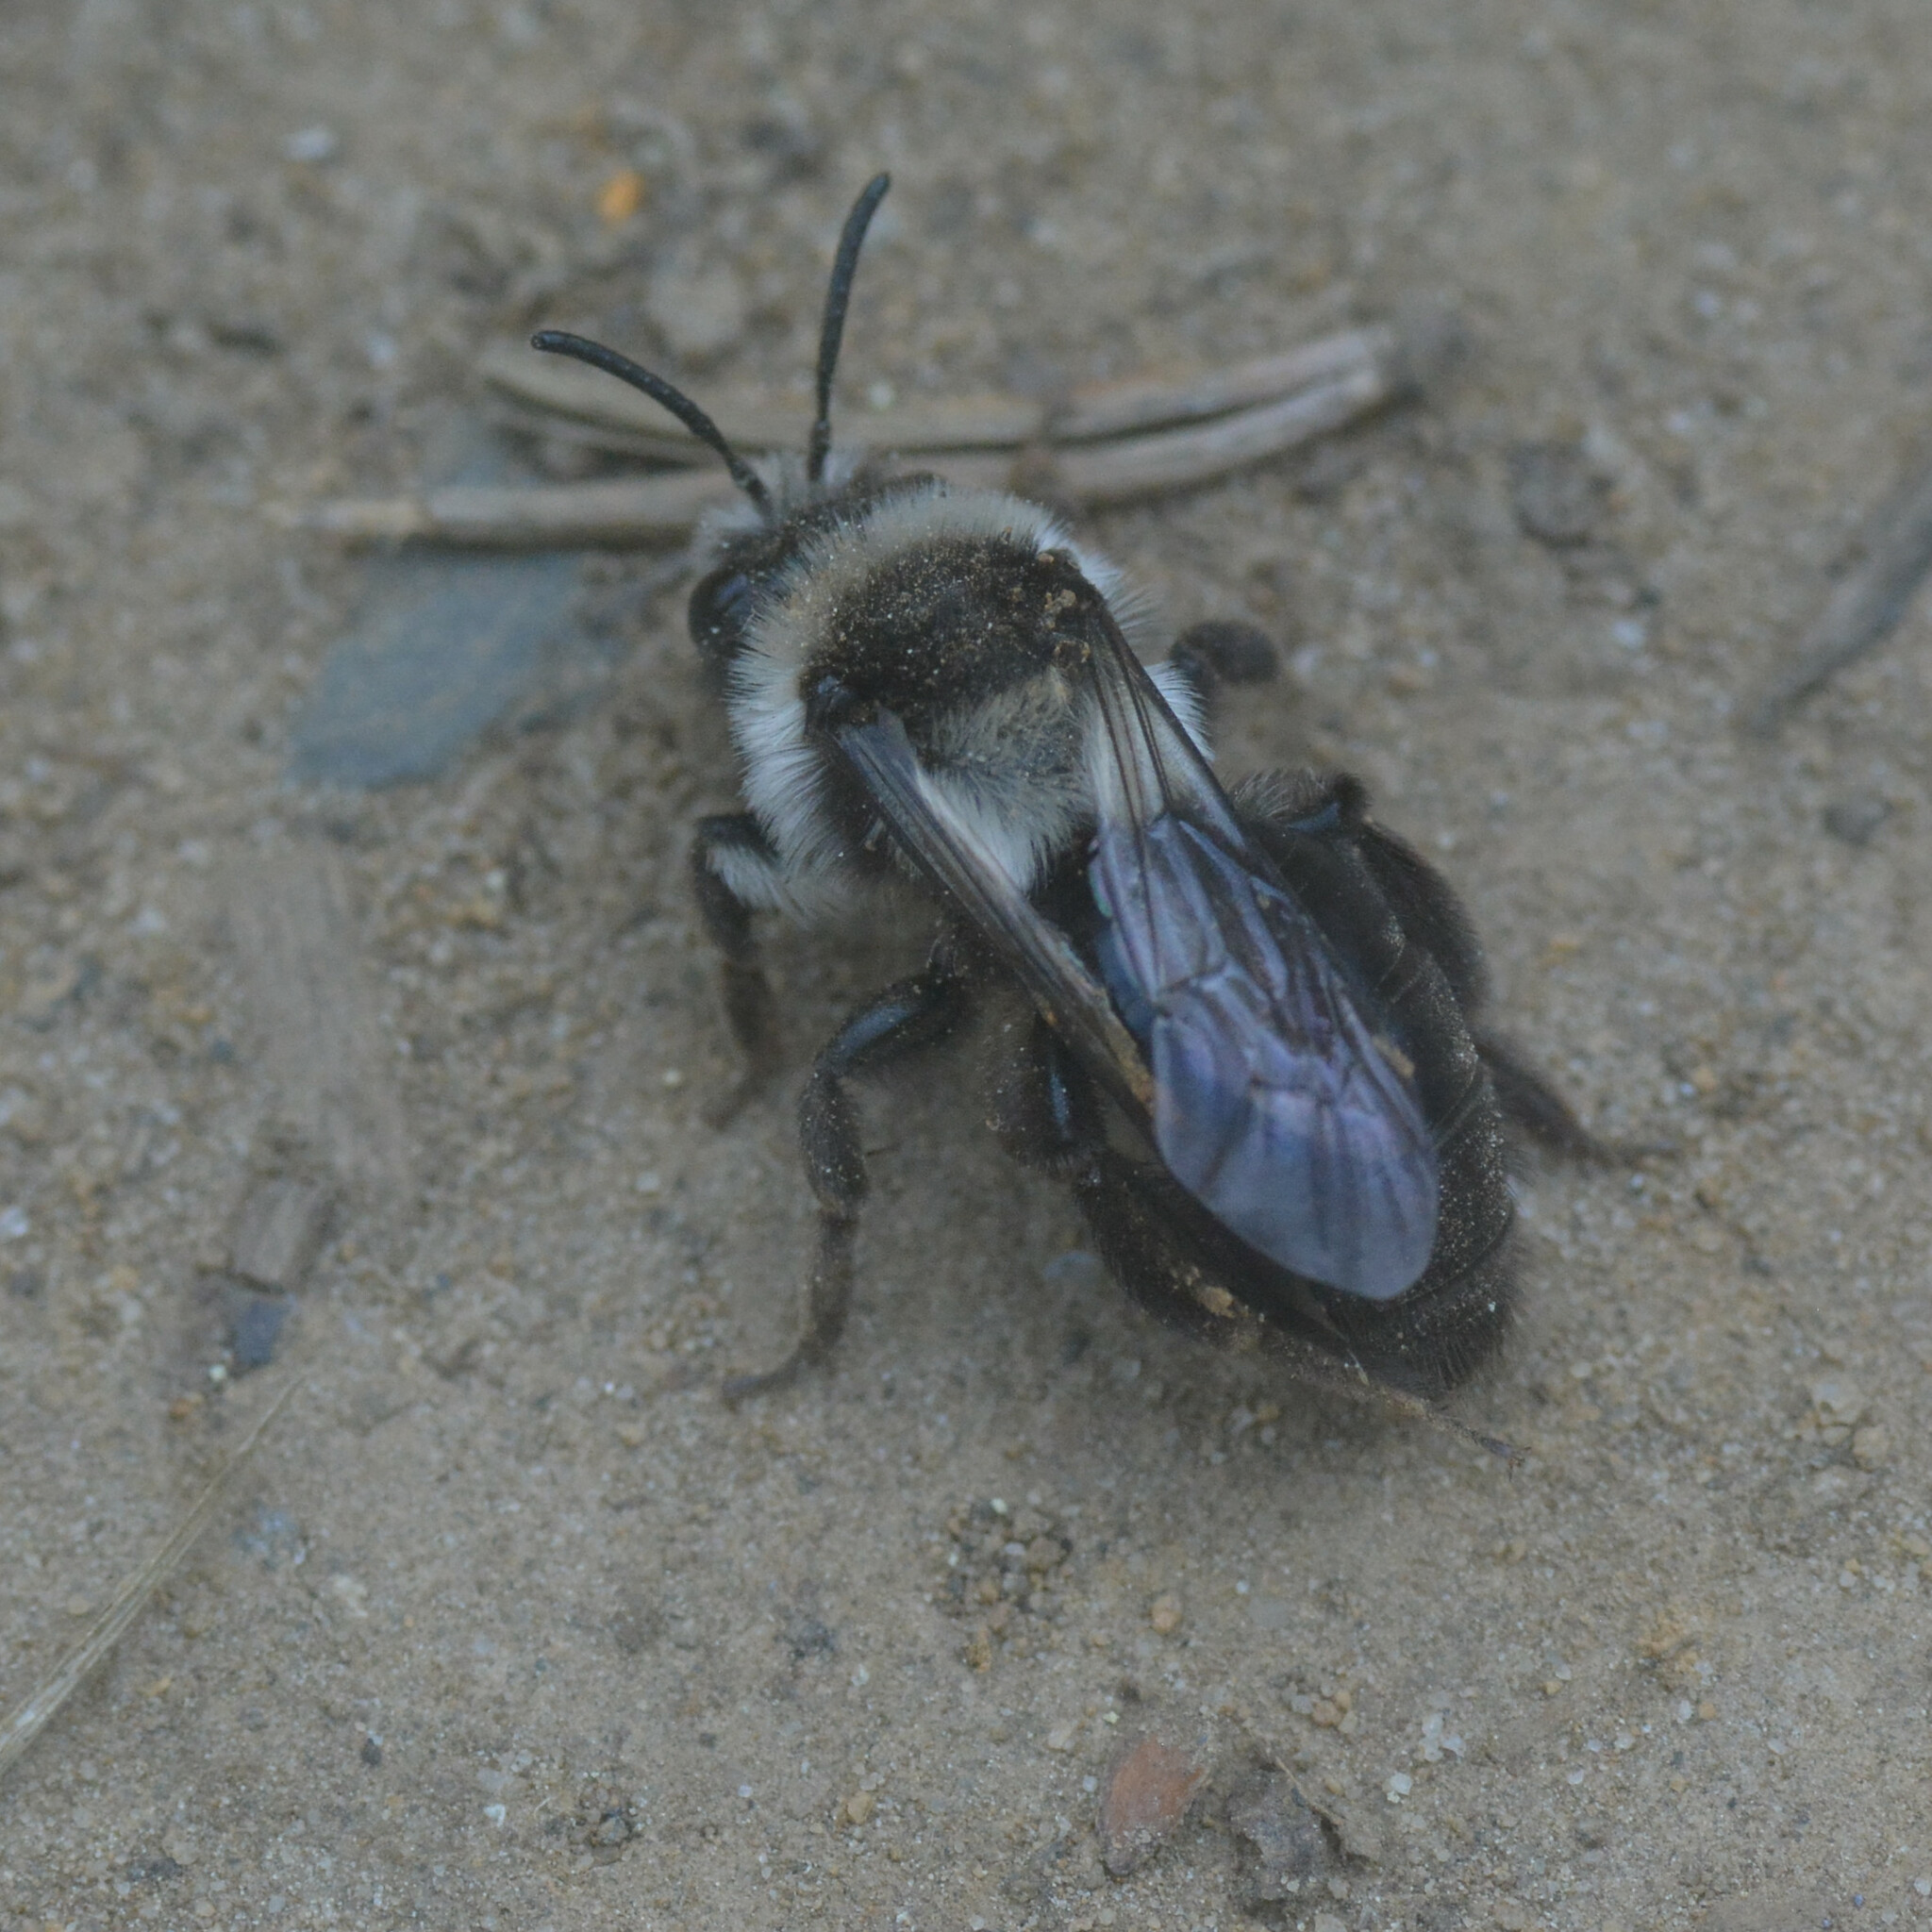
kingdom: Animalia
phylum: Arthropoda
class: Insecta
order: Hymenoptera
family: Andrenidae
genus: Andrena
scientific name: Andrena cineraria
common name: Ashy mining bee
